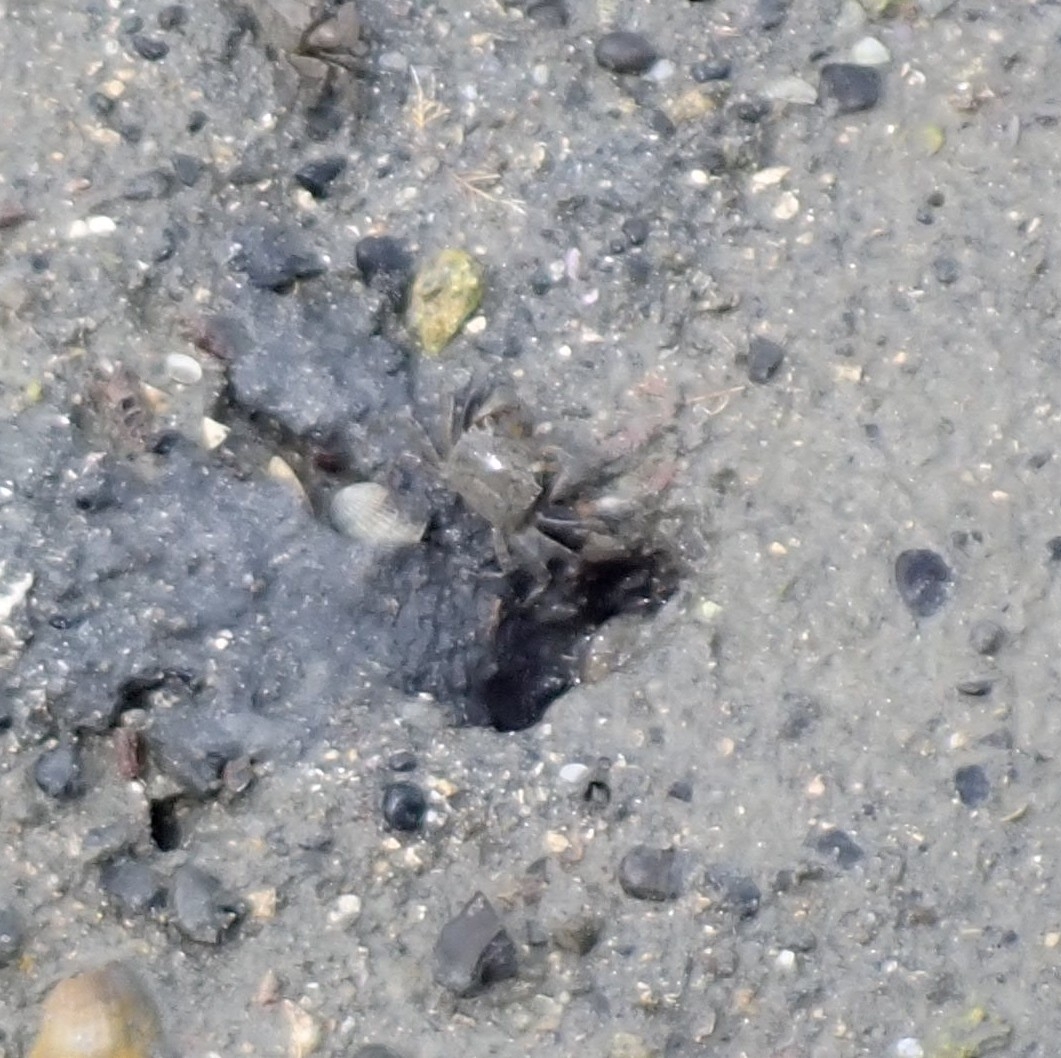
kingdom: Animalia
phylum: Arthropoda
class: Malacostraca
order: Decapoda
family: Varunidae
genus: Austrohelice
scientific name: Austrohelice crassa
